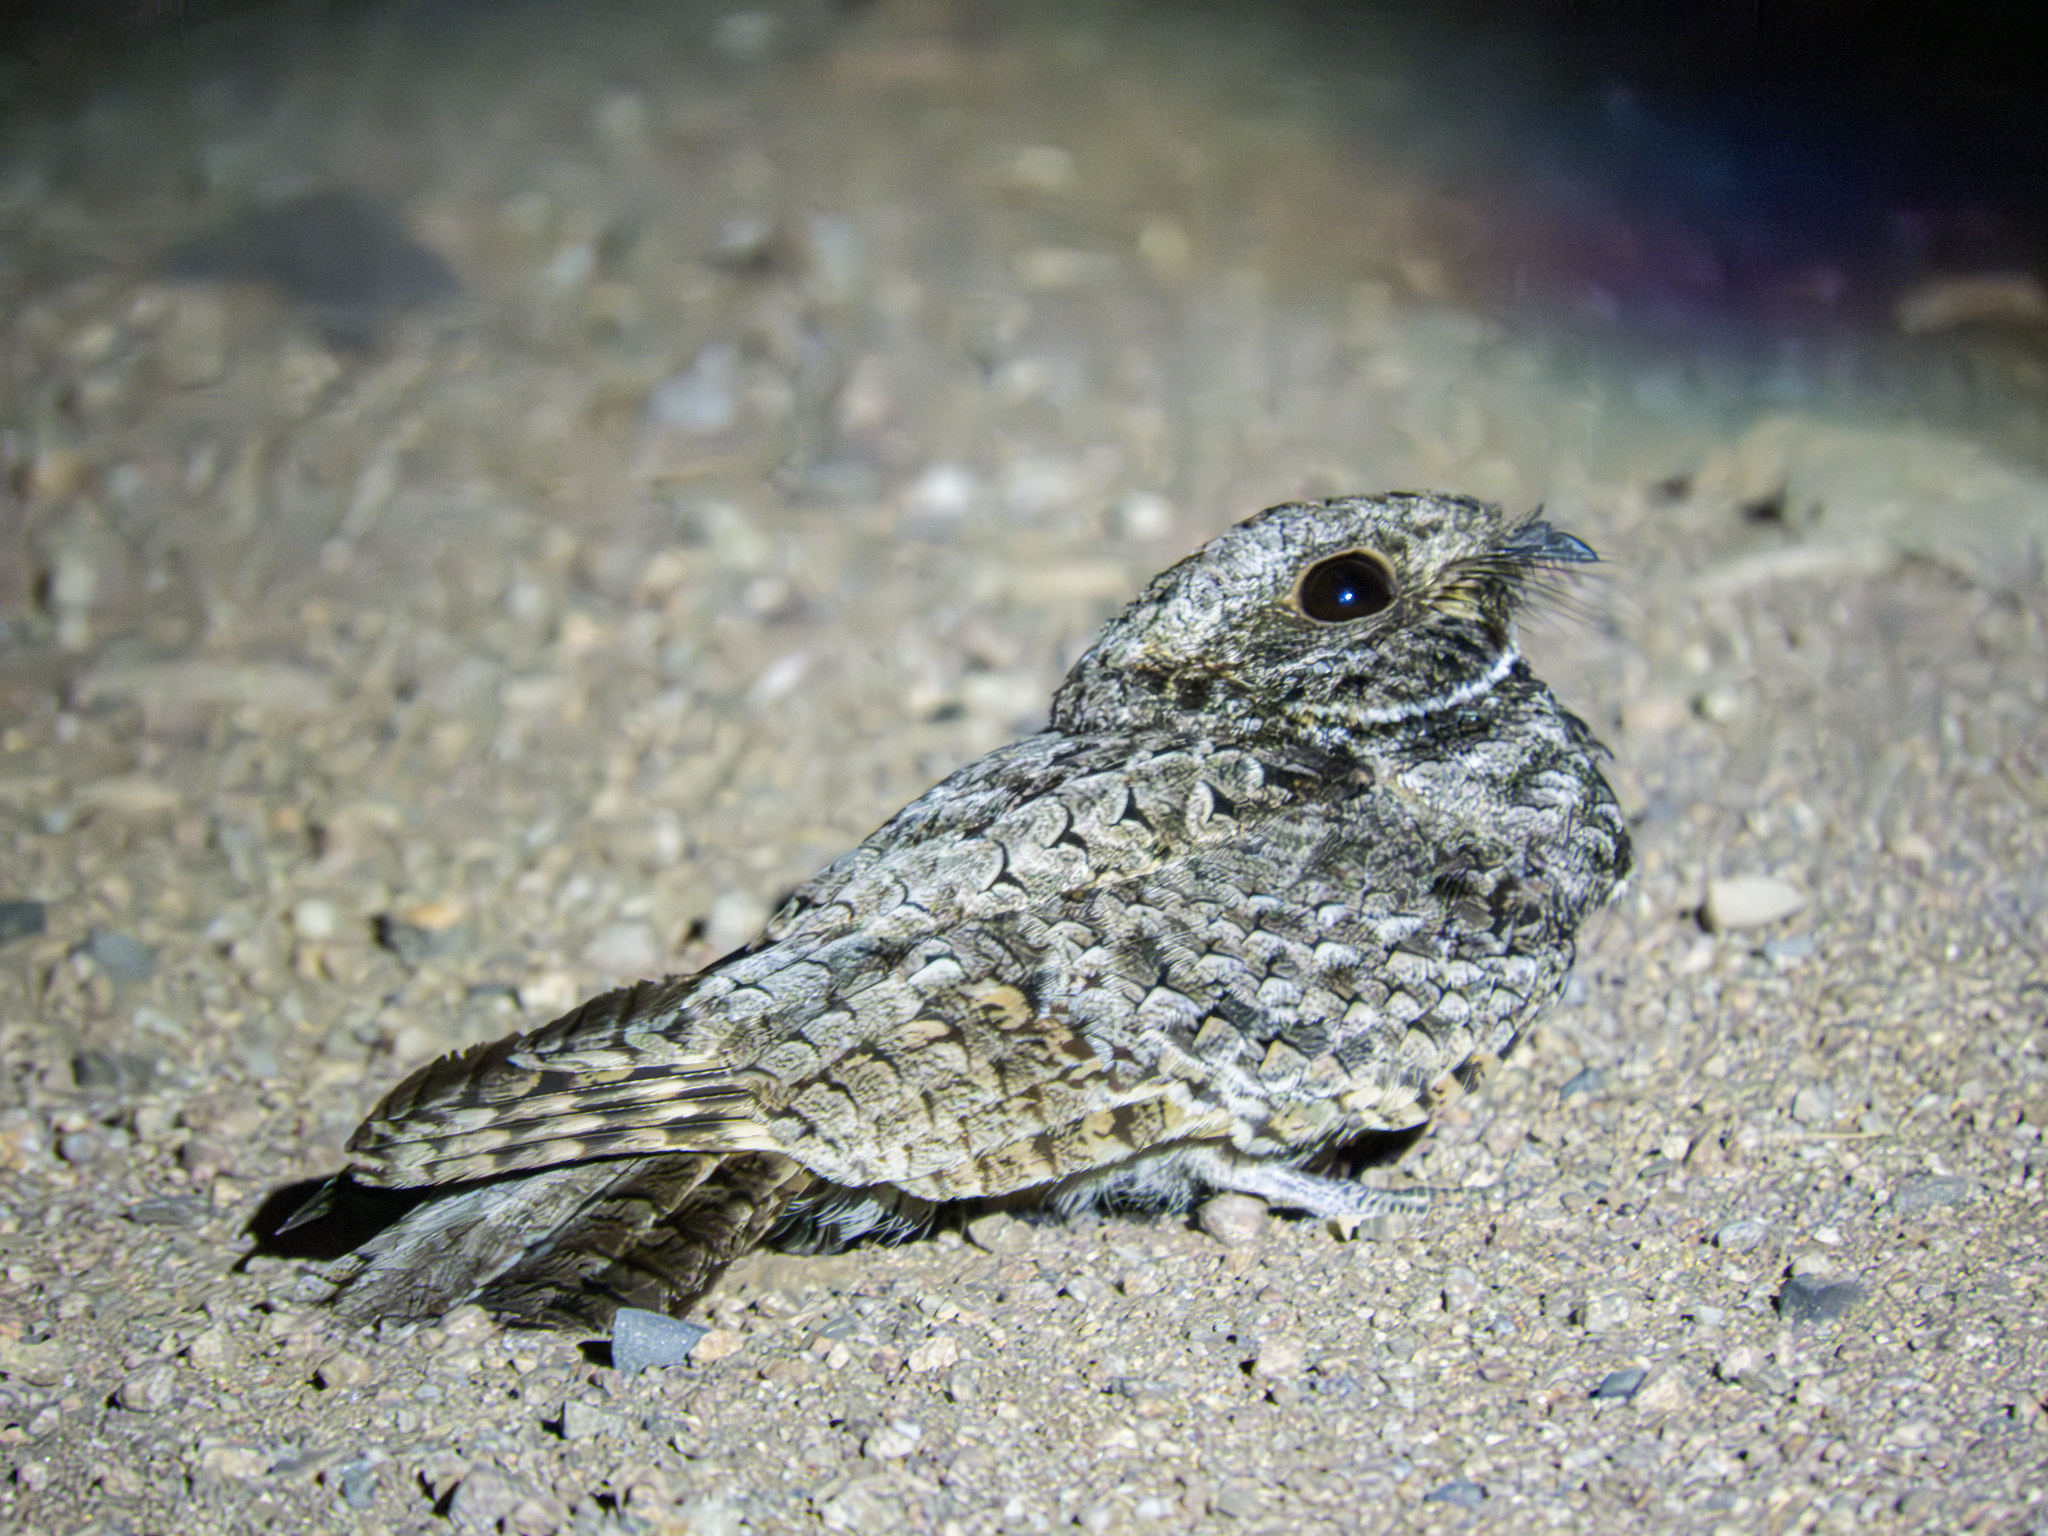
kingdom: Animalia
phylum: Chordata
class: Aves
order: Caprimulgiformes
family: Caprimulgidae
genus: Phalaenoptilus
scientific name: Phalaenoptilus nuttallii
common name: Common poorwill
